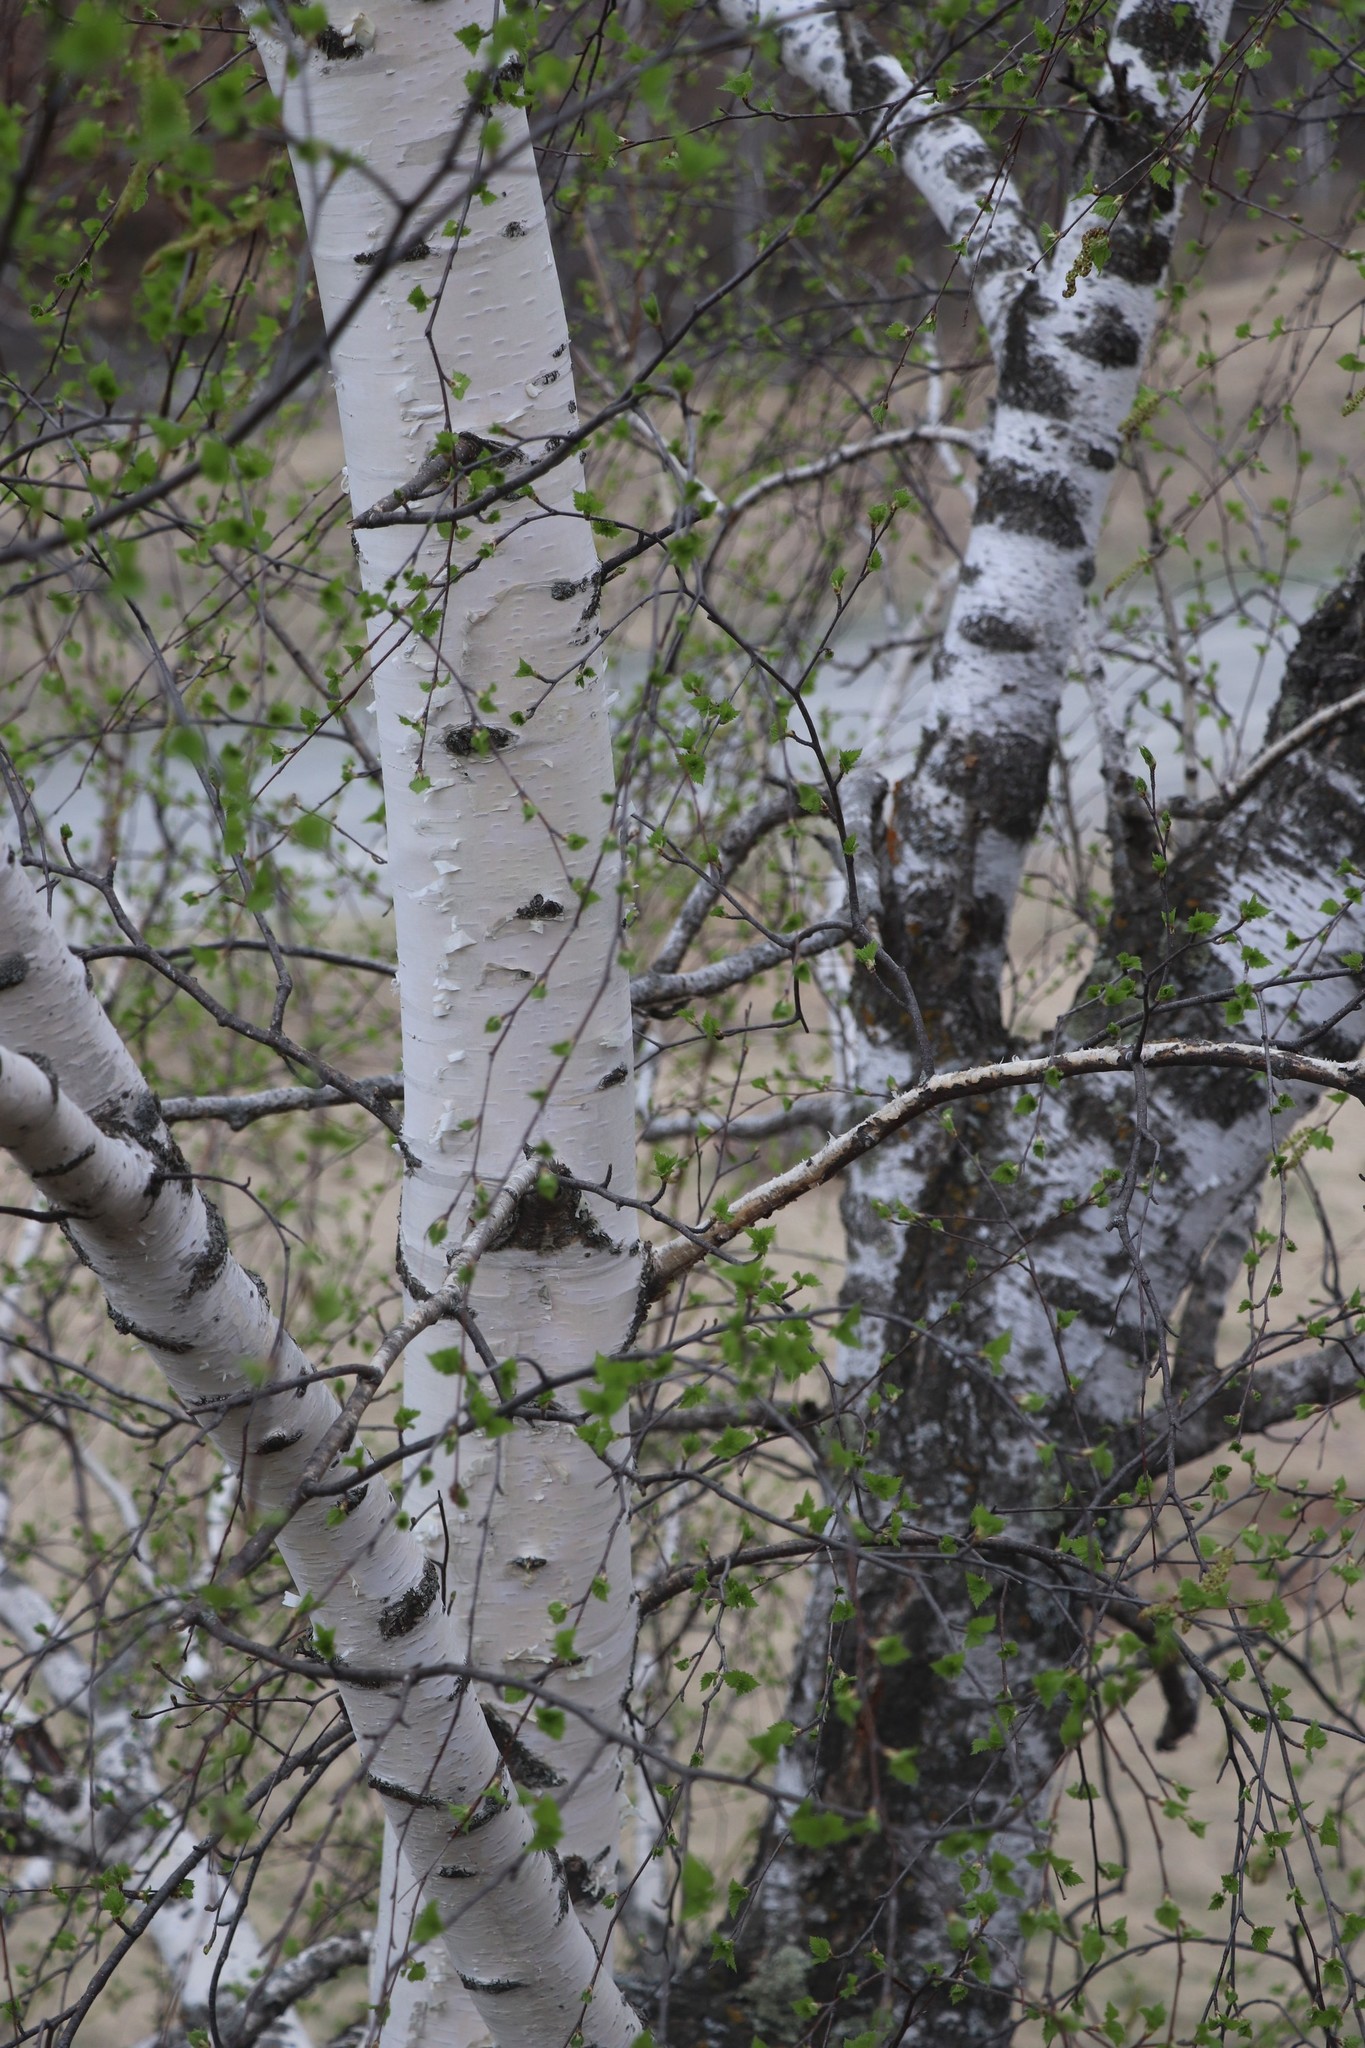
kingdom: Plantae
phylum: Tracheophyta
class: Magnoliopsida
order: Fagales
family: Betulaceae
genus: Betula
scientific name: Betula pendula
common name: Silver birch
